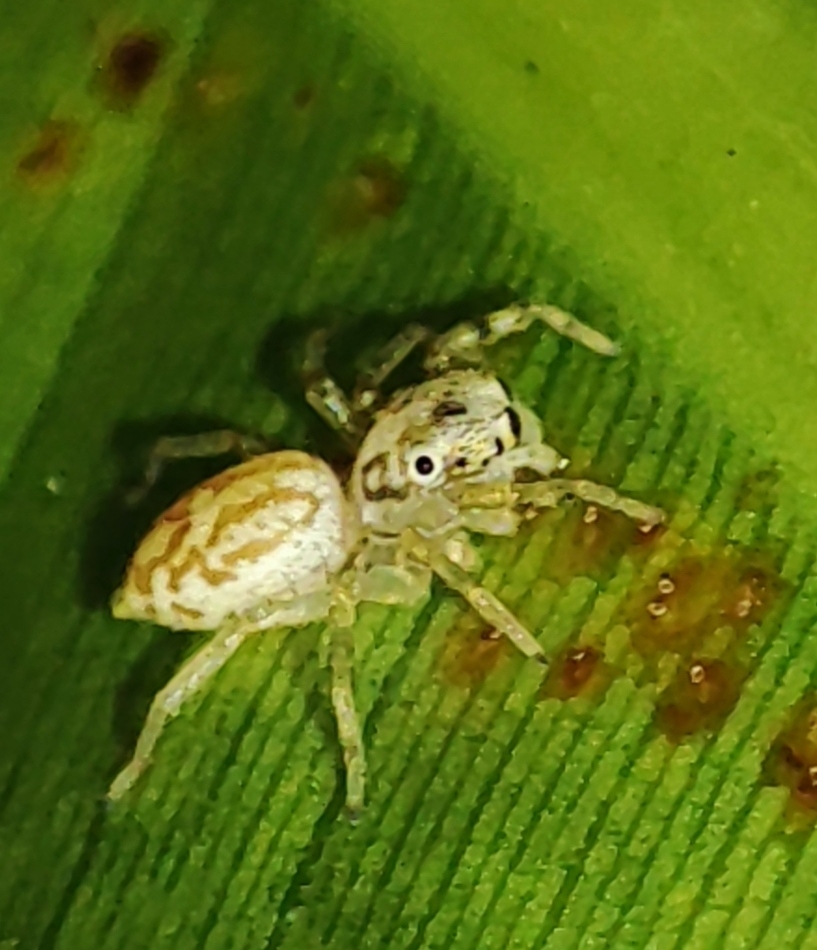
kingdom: Animalia
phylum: Arthropoda
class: Arachnida
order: Araneae
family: Salticidae
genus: Phintelloides
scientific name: Phintelloides versicolor
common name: Jumping spider
